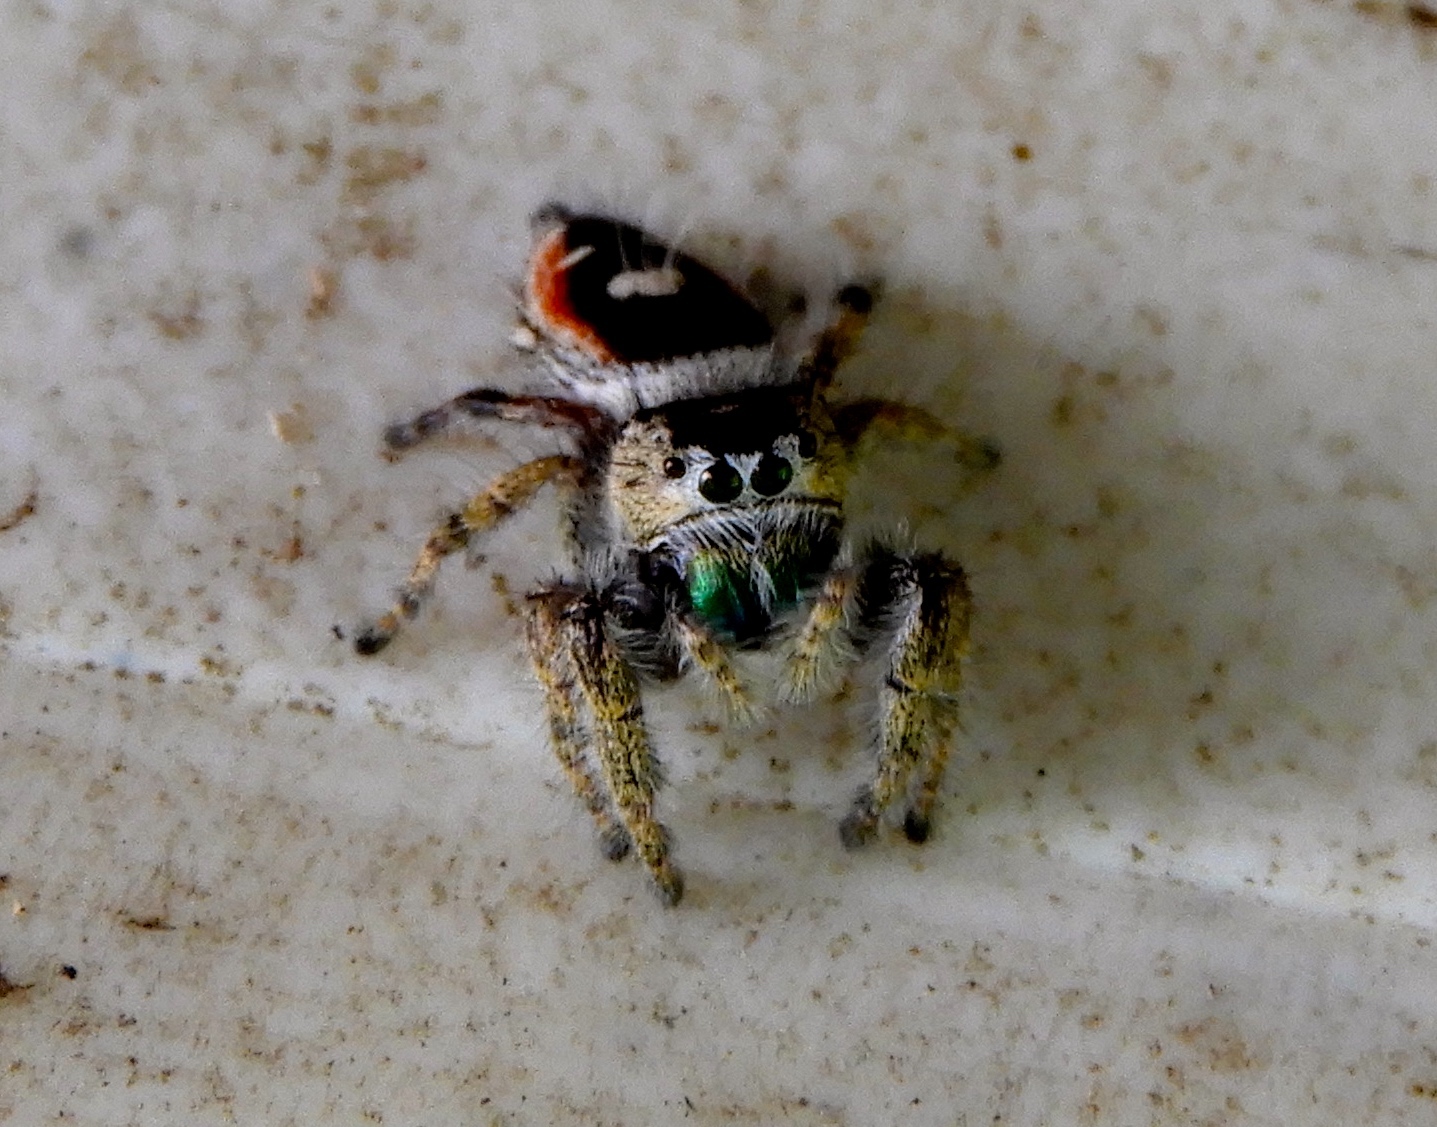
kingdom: Animalia
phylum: Arthropoda
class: Arachnida
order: Araneae
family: Salticidae
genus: Phidippus
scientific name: Phidippus californicus
